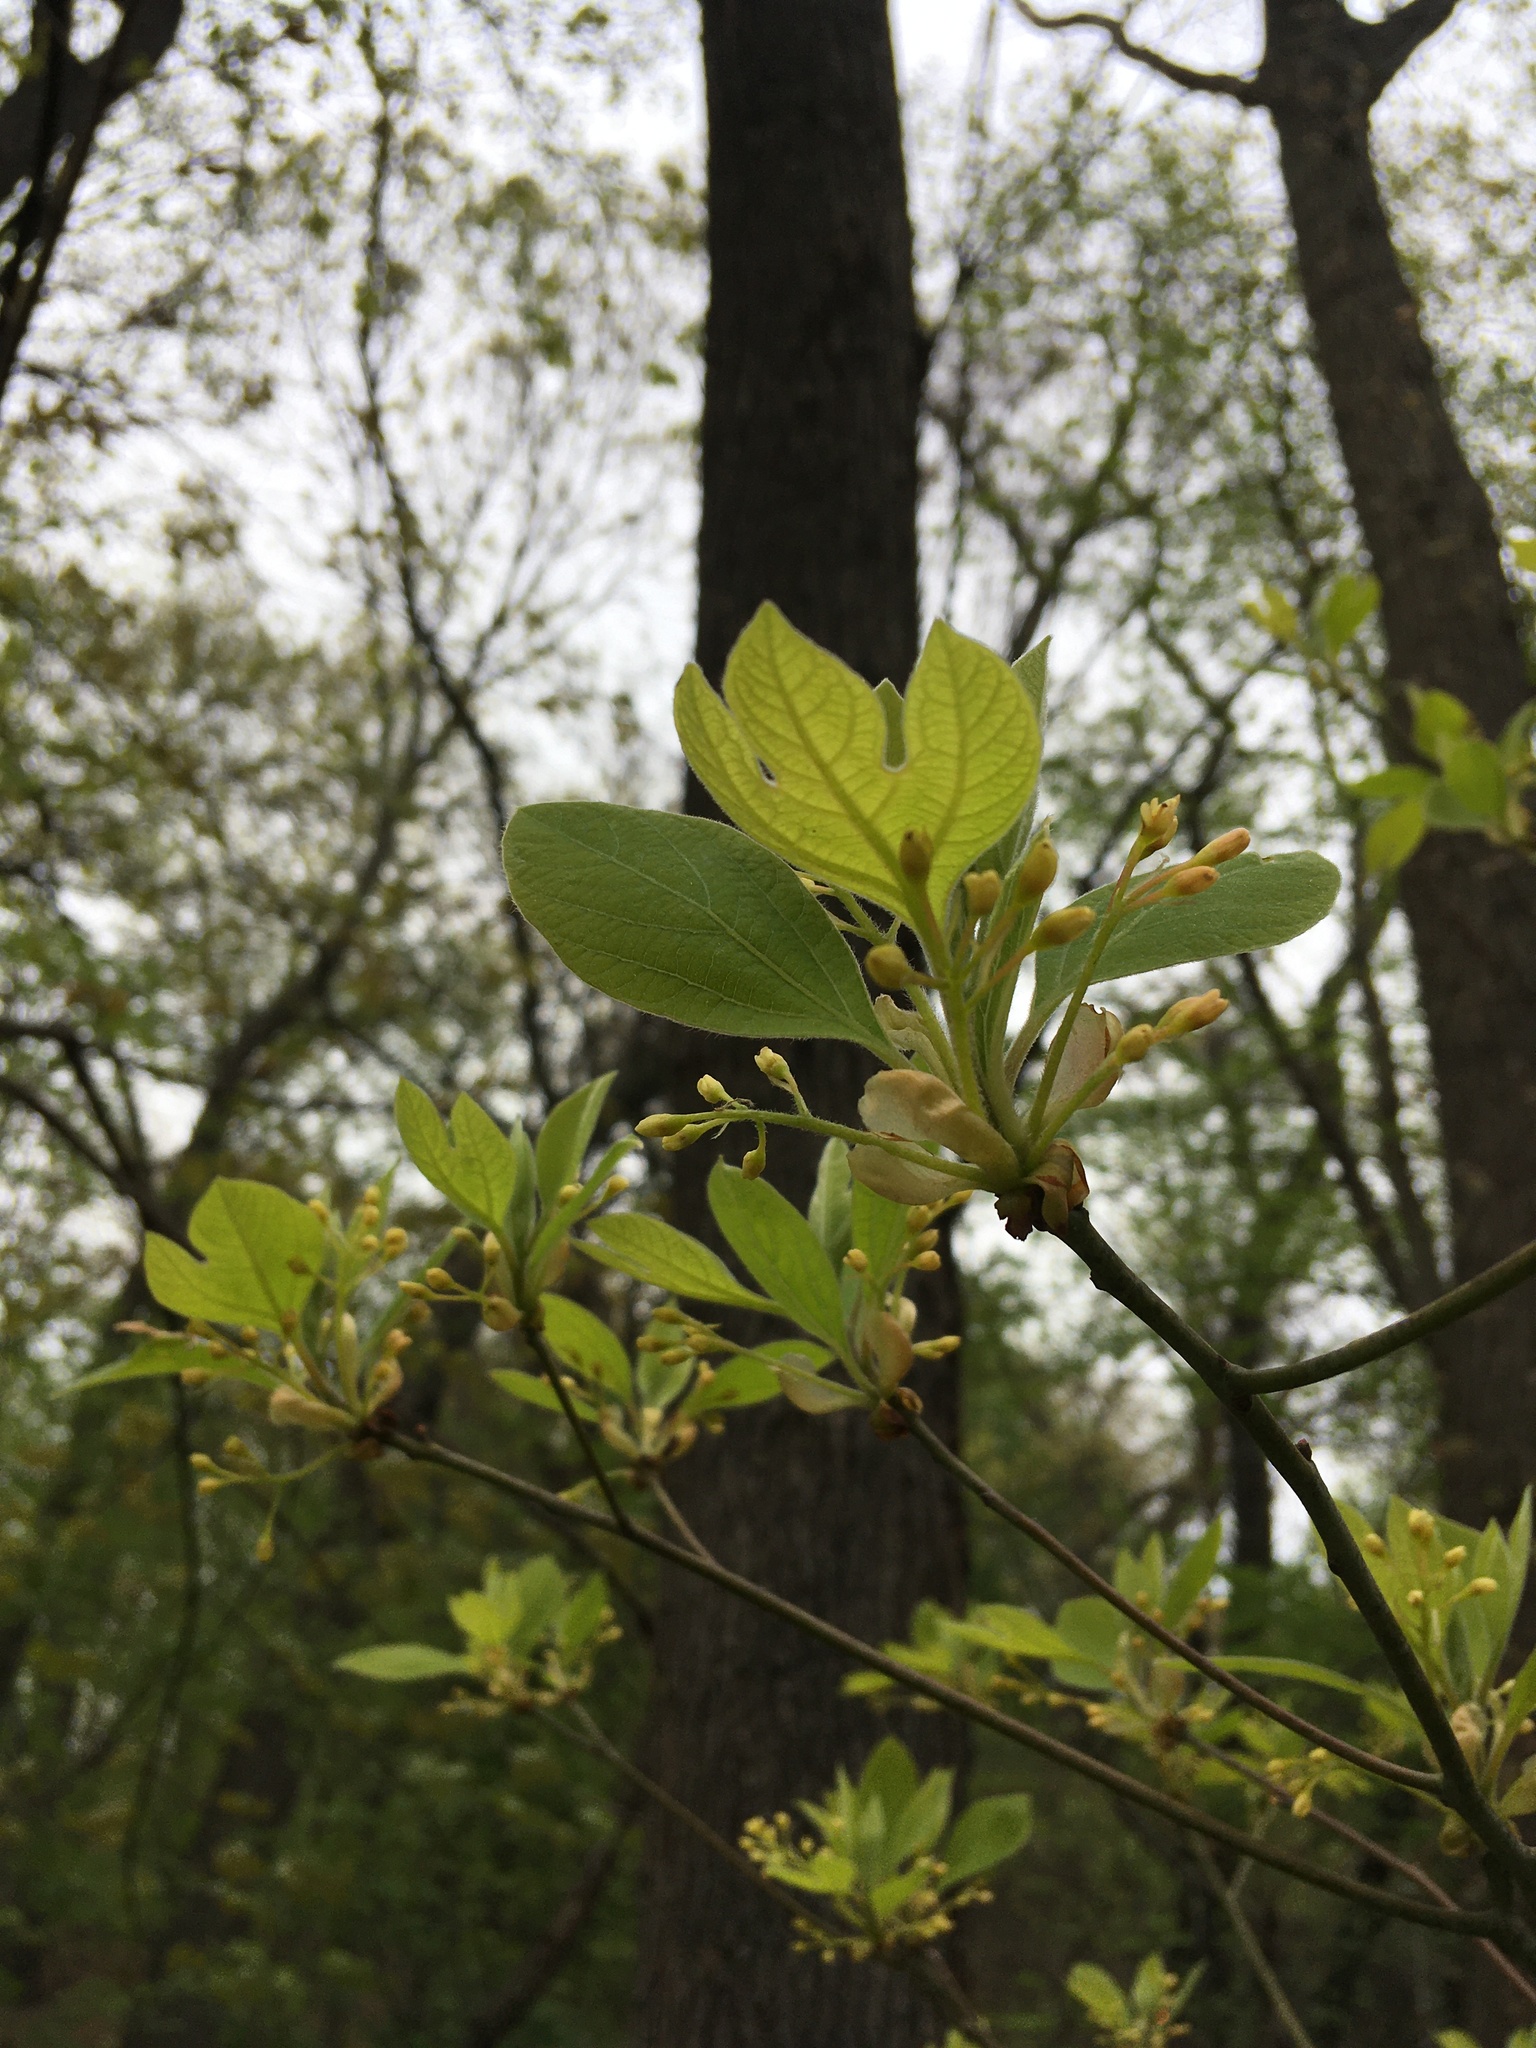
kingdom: Plantae
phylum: Tracheophyta
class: Magnoliopsida
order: Laurales
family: Lauraceae
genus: Sassafras
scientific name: Sassafras albidum
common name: Sassafras
